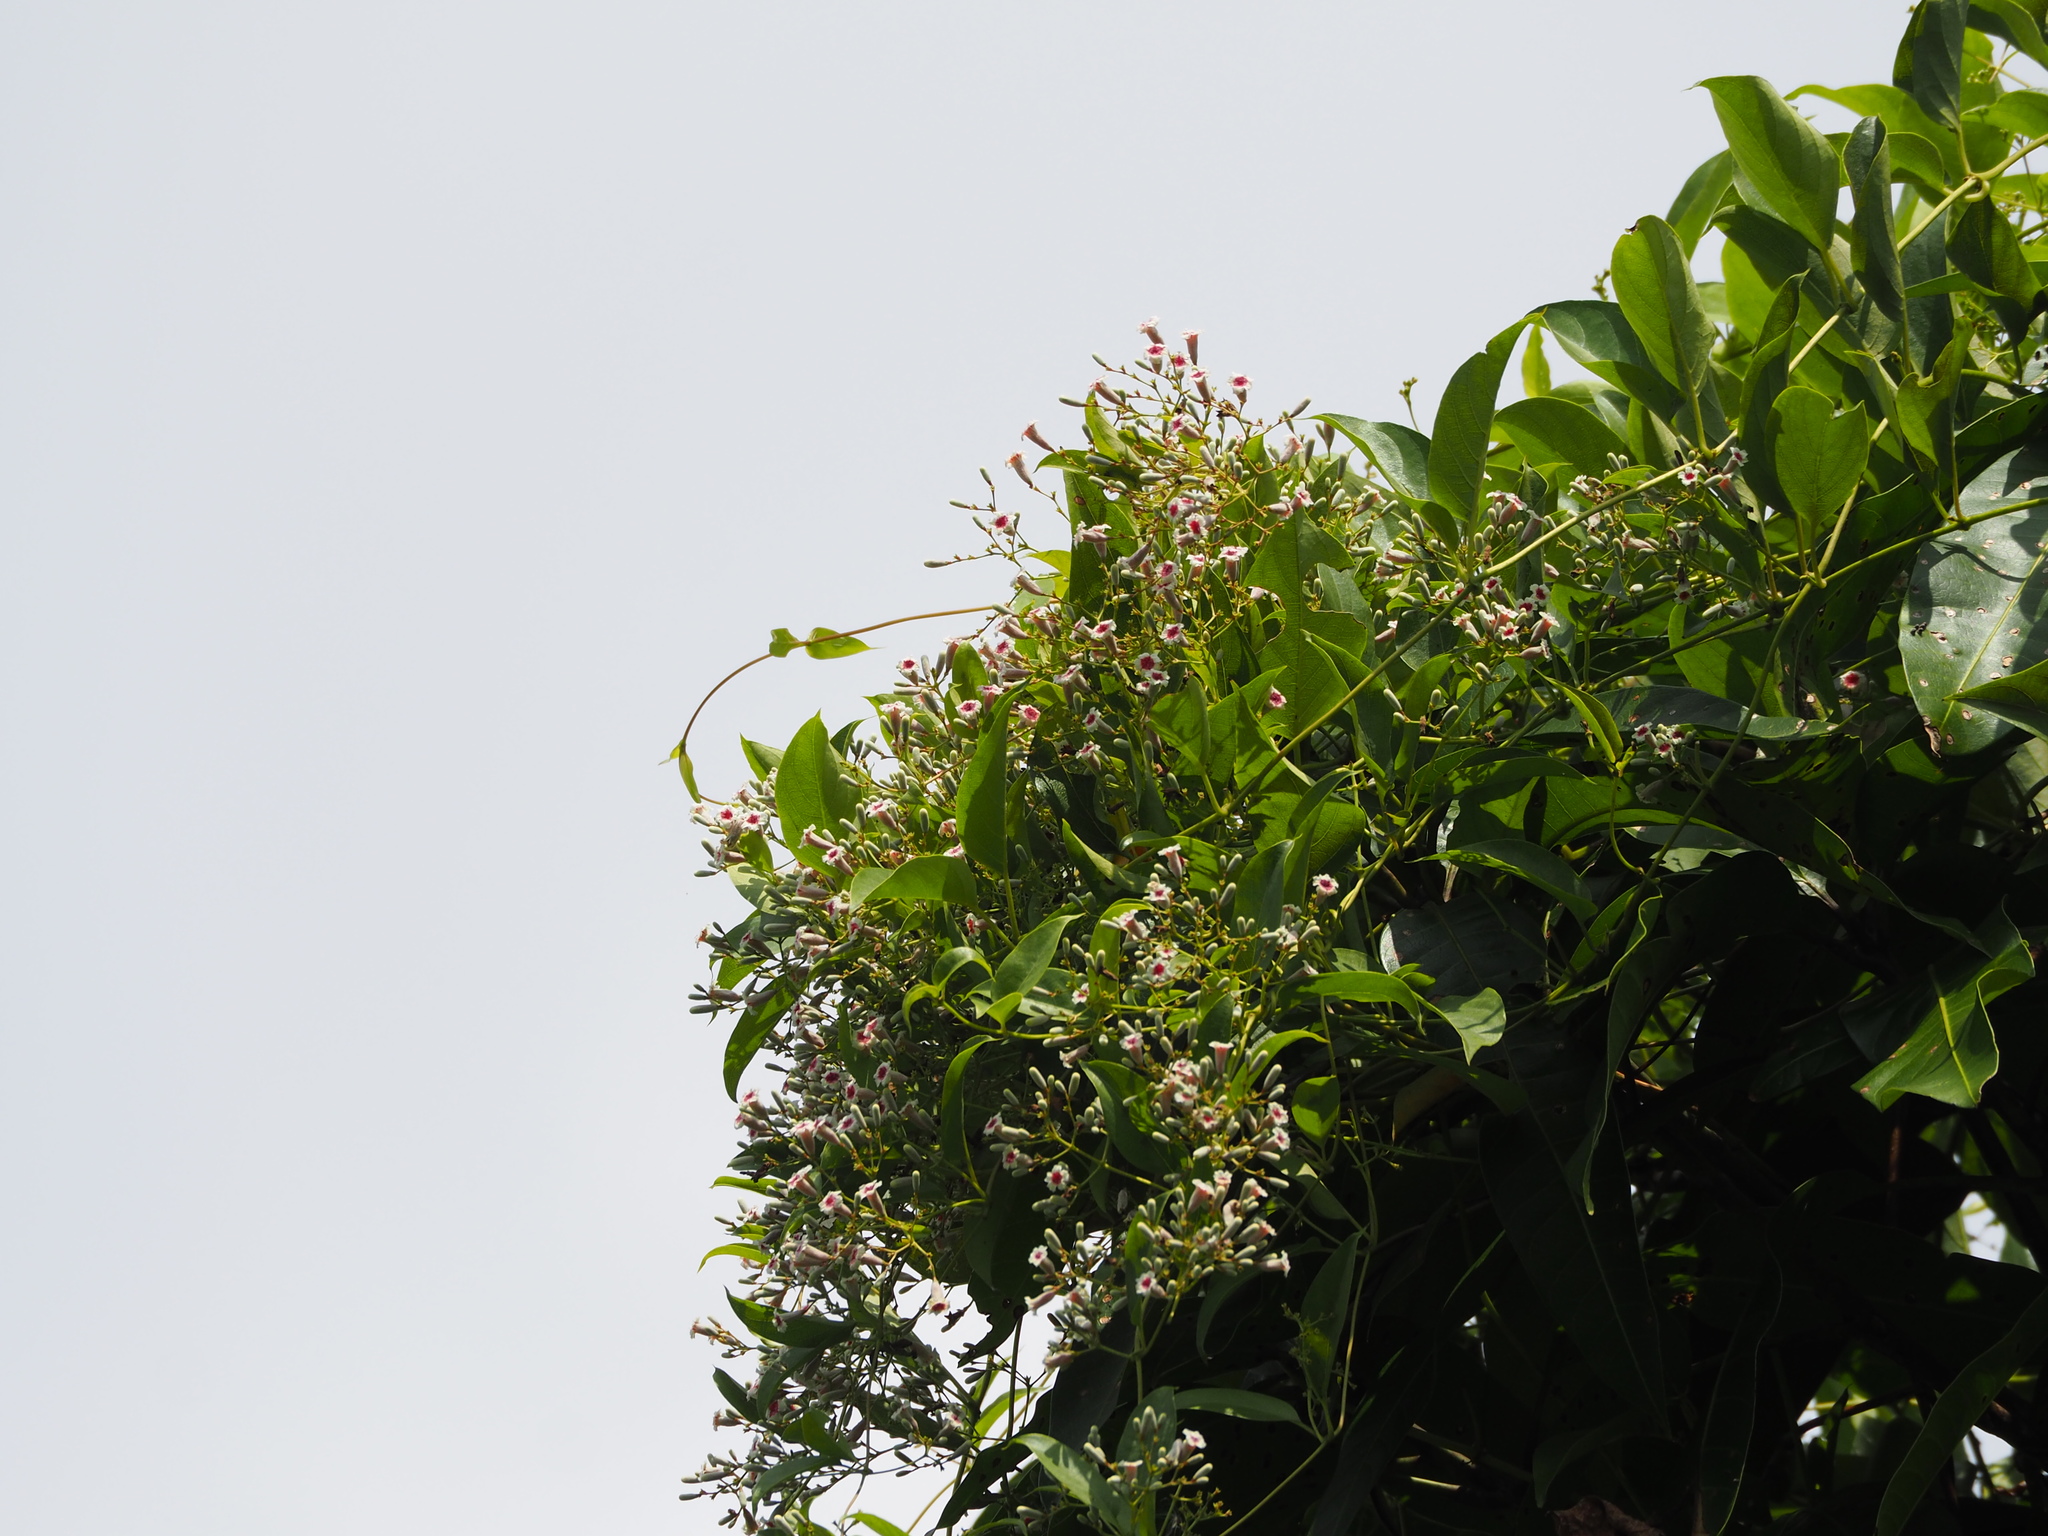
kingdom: Plantae
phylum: Tracheophyta
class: Magnoliopsida
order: Gentianales
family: Rubiaceae
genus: Paederia
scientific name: Paederia foetida
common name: Stinkvine
